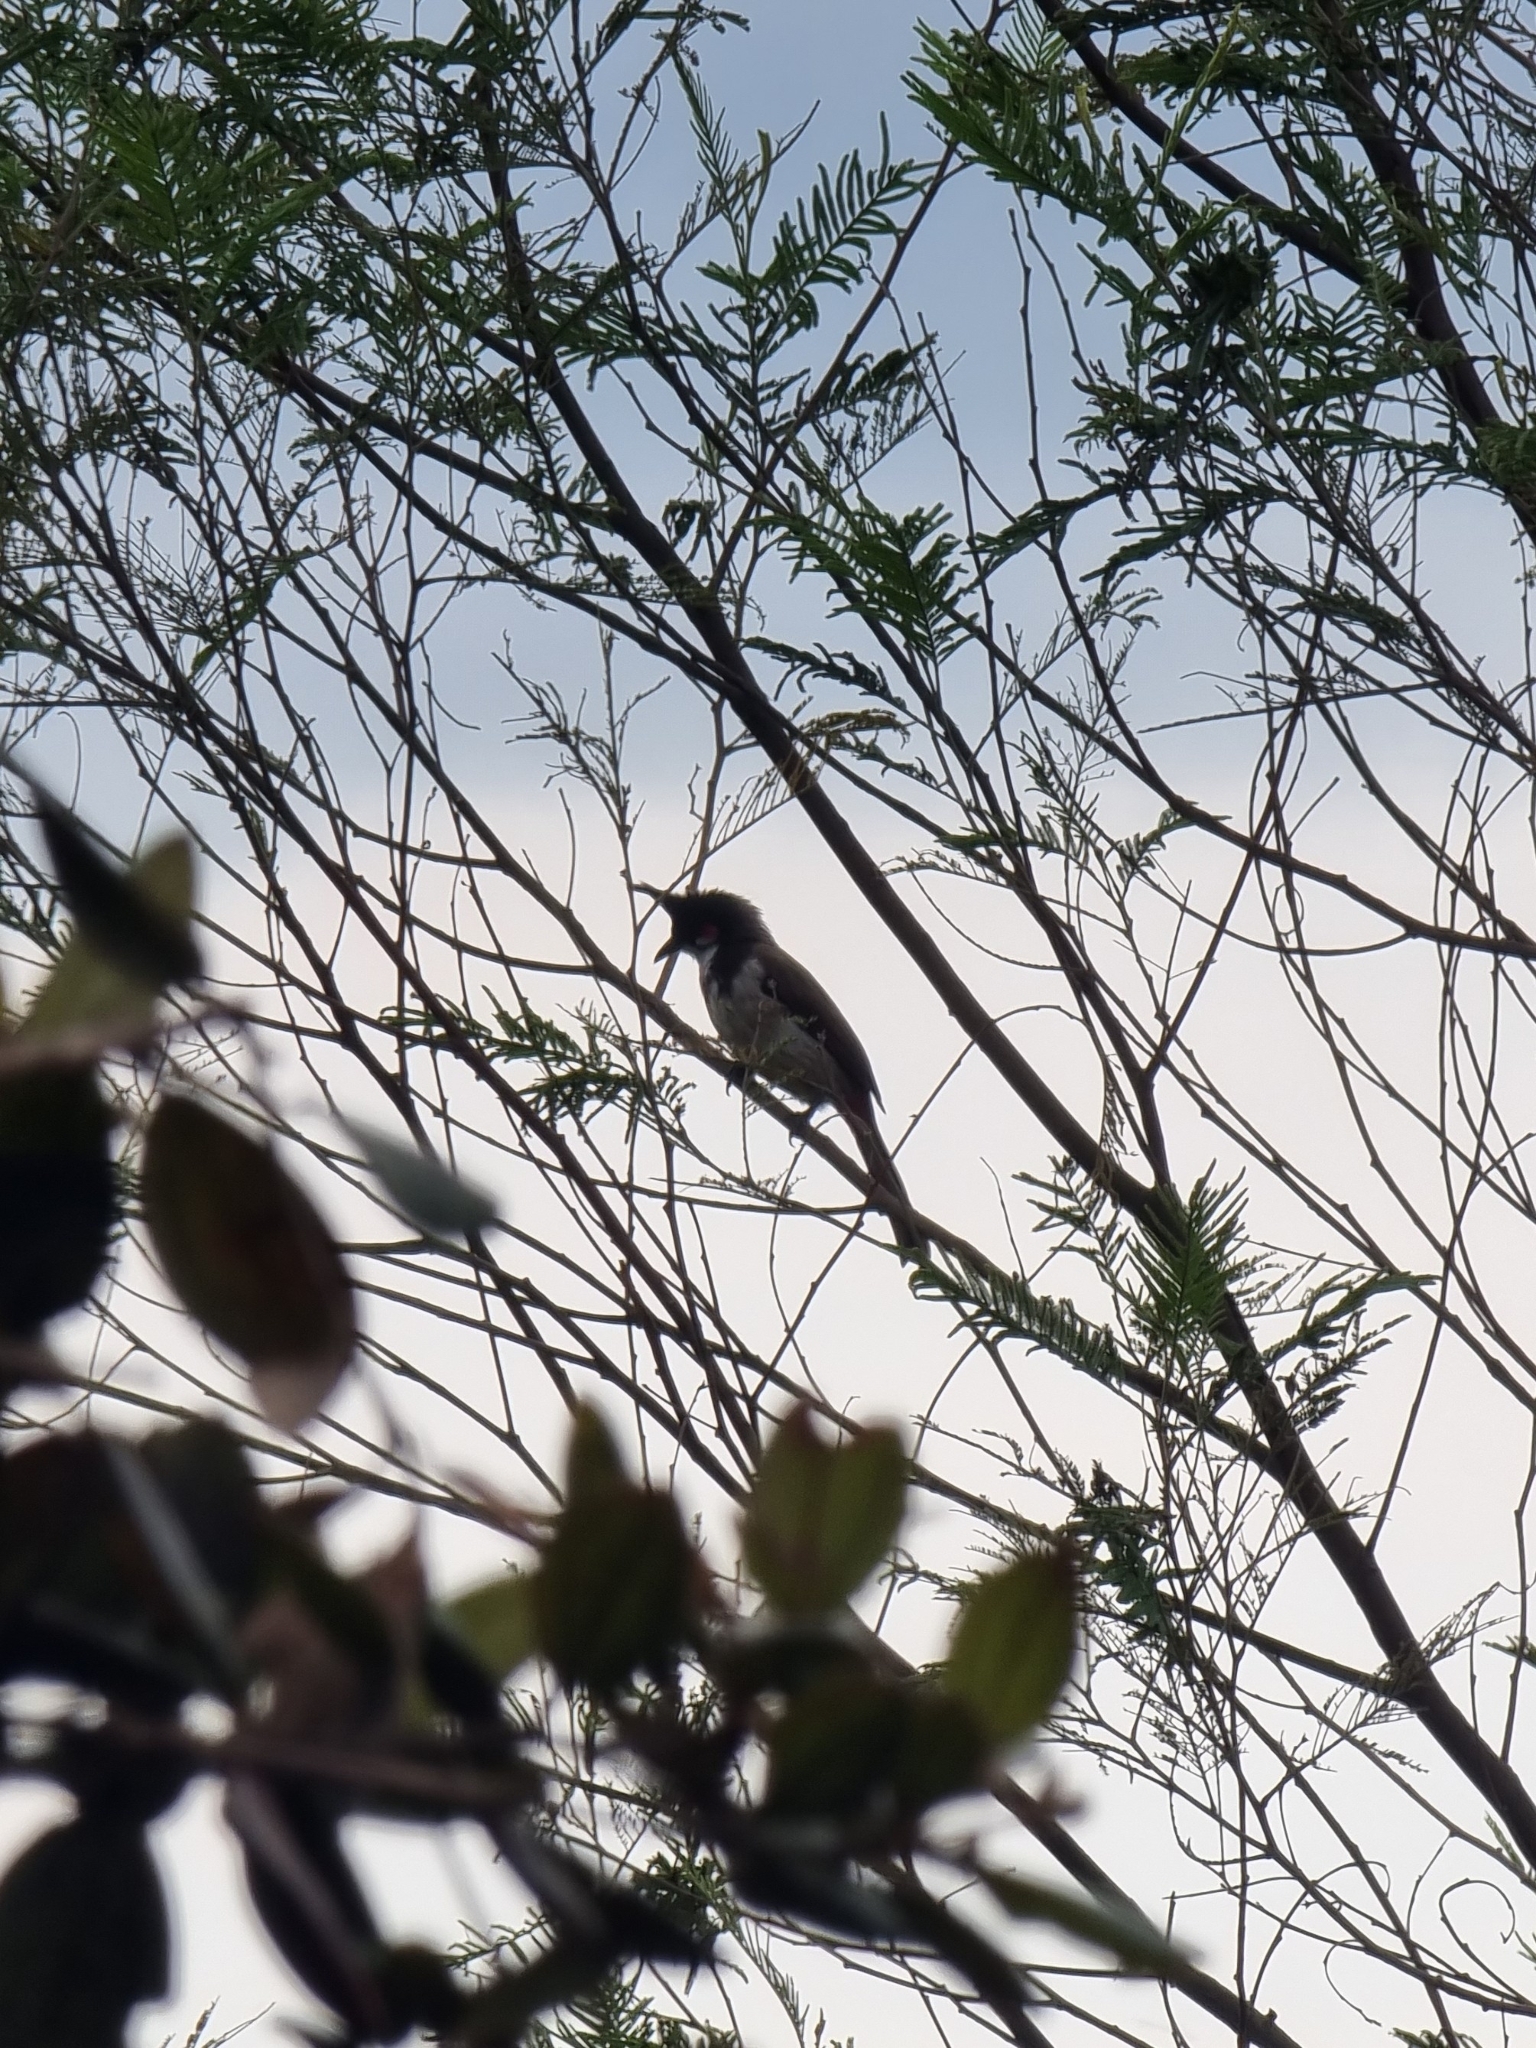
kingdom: Animalia
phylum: Chordata
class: Aves
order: Passeriformes
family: Pycnonotidae
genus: Pycnonotus
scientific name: Pycnonotus jocosus
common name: Red-whiskered bulbul
